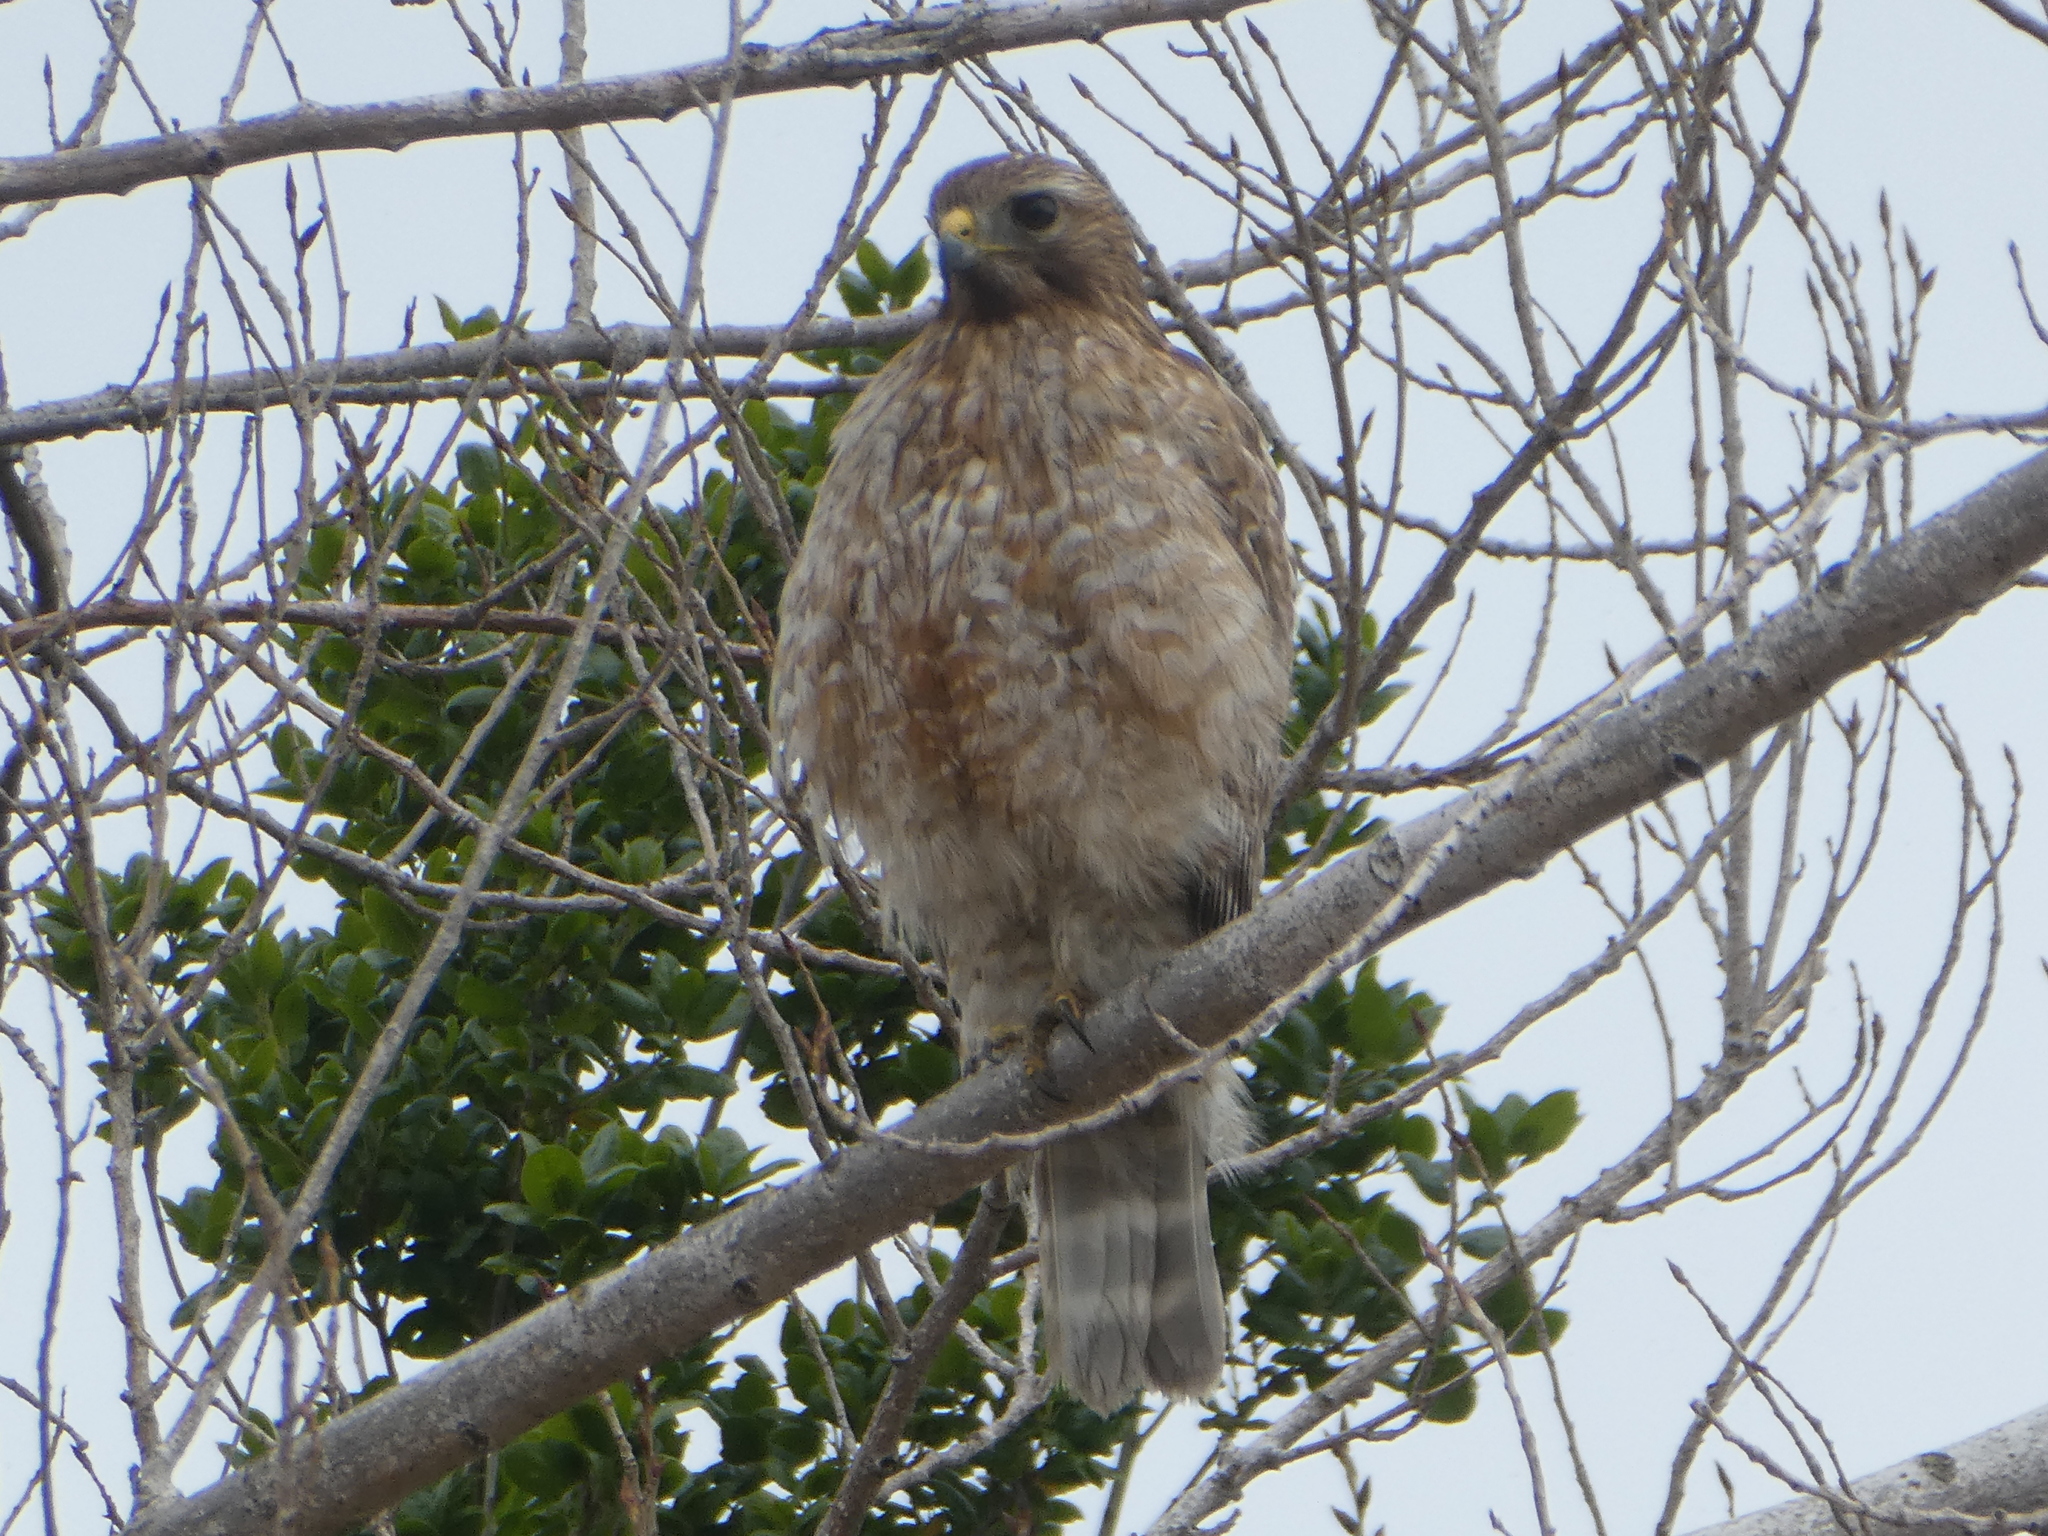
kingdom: Animalia
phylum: Chordata
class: Aves
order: Accipitriformes
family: Accipitridae
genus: Buteo
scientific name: Buteo lineatus
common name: Red-shouldered hawk
